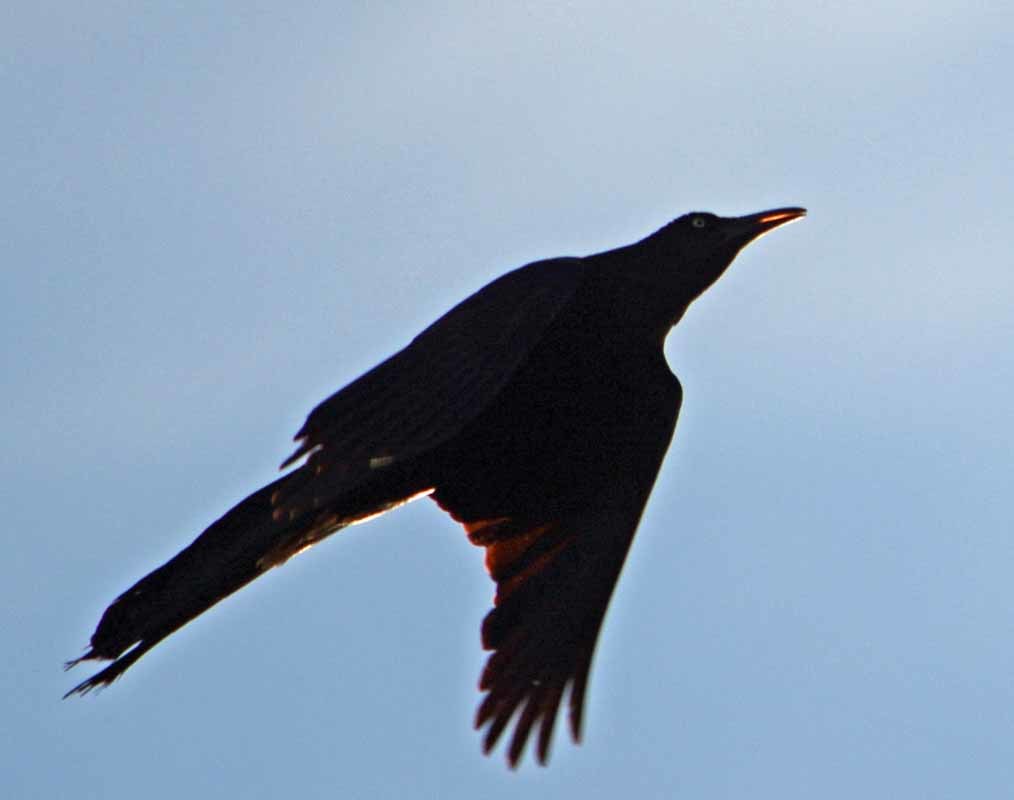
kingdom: Animalia
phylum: Chordata
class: Aves
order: Passeriformes
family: Icteridae
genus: Quiscalus
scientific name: Quiscalus mexicanus
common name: Great-tailed grackle
